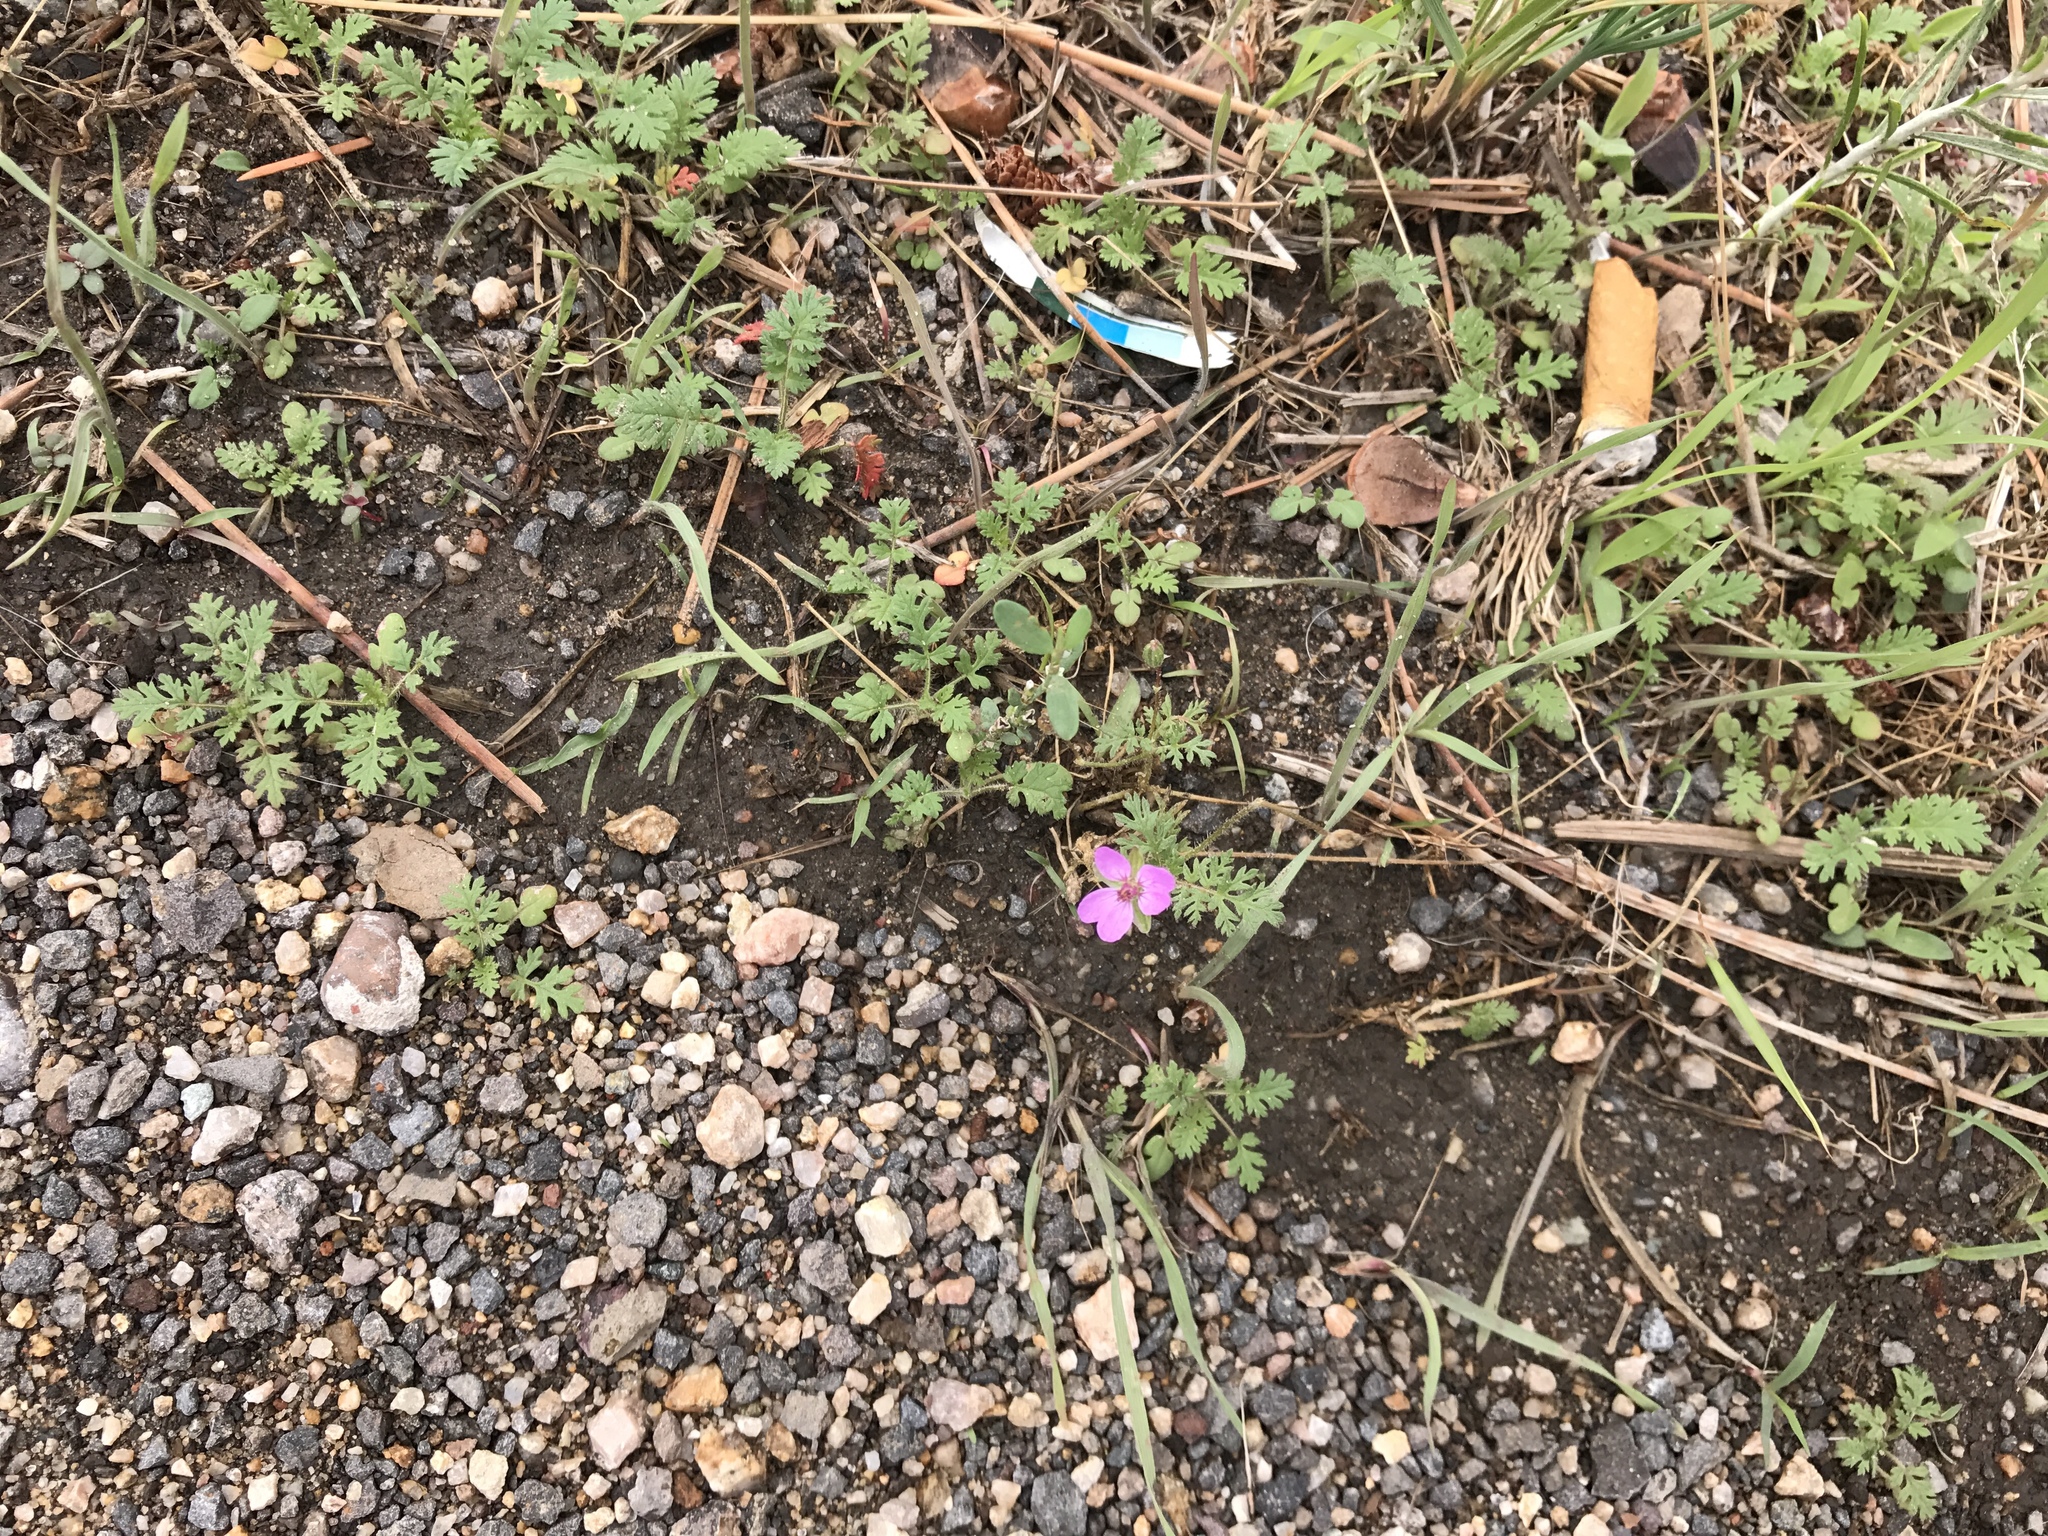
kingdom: Plantae
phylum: Tracheophyta
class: Magnoliopsida
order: Geraniales
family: Geraniaceae
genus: Erodium
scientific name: Erodium cicutarium
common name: Common stork's-bill
